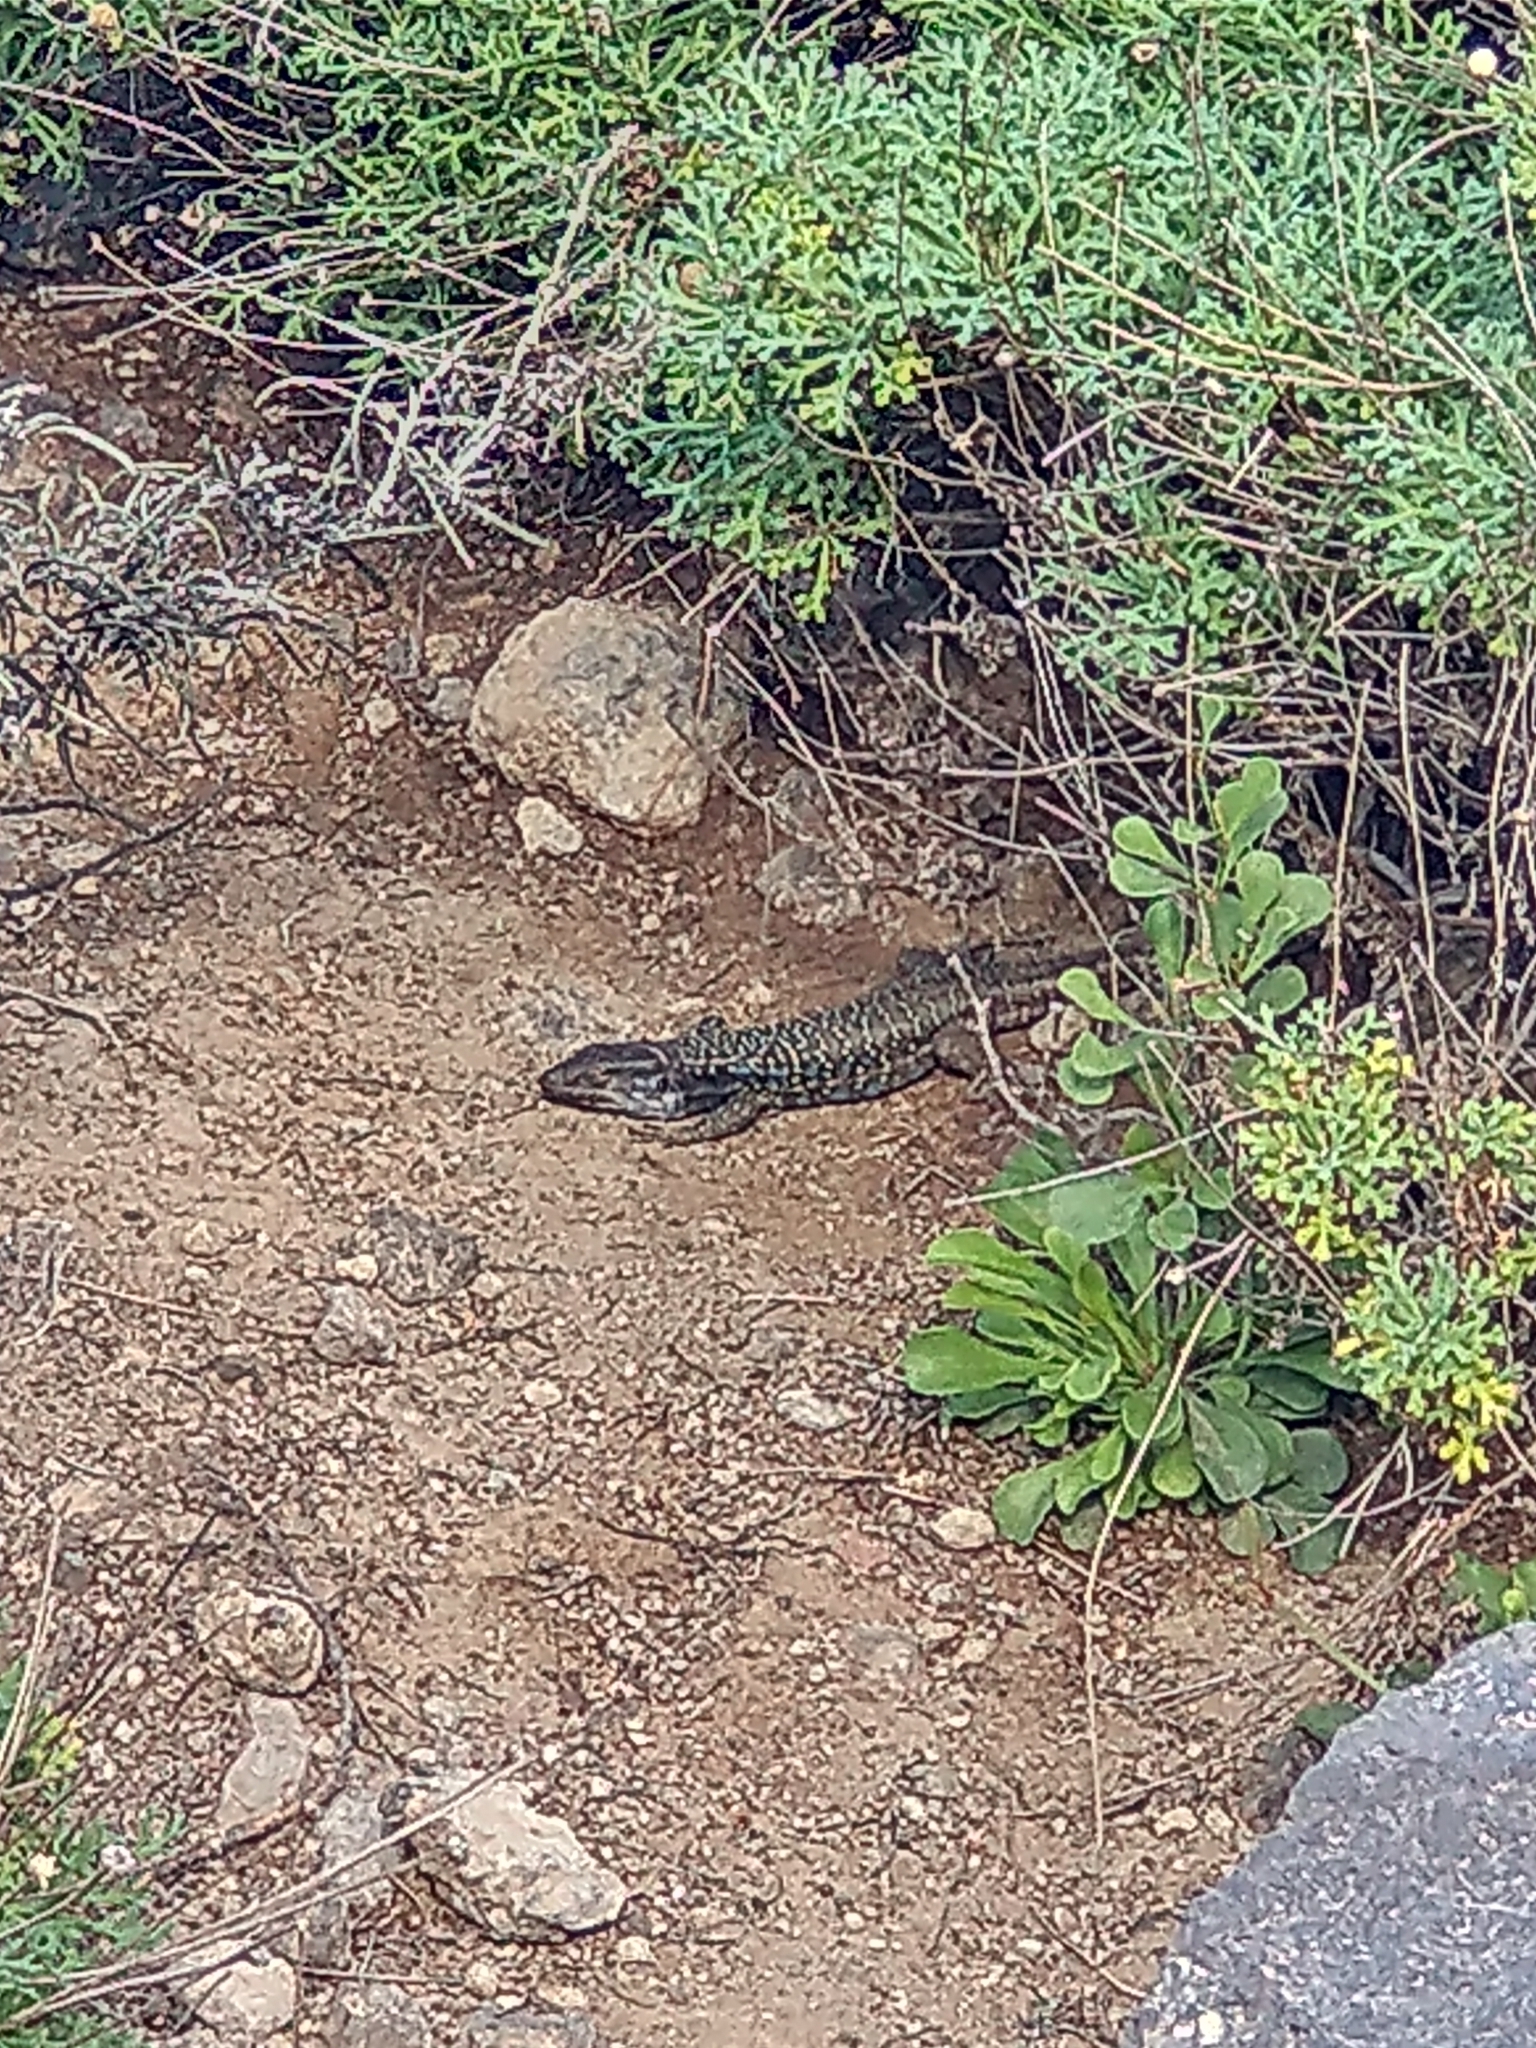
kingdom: Animalia
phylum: Chordata
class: Squamata
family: Lacertidae
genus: Gallotia
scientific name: Gallotia galloti
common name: Gallot's lizard
